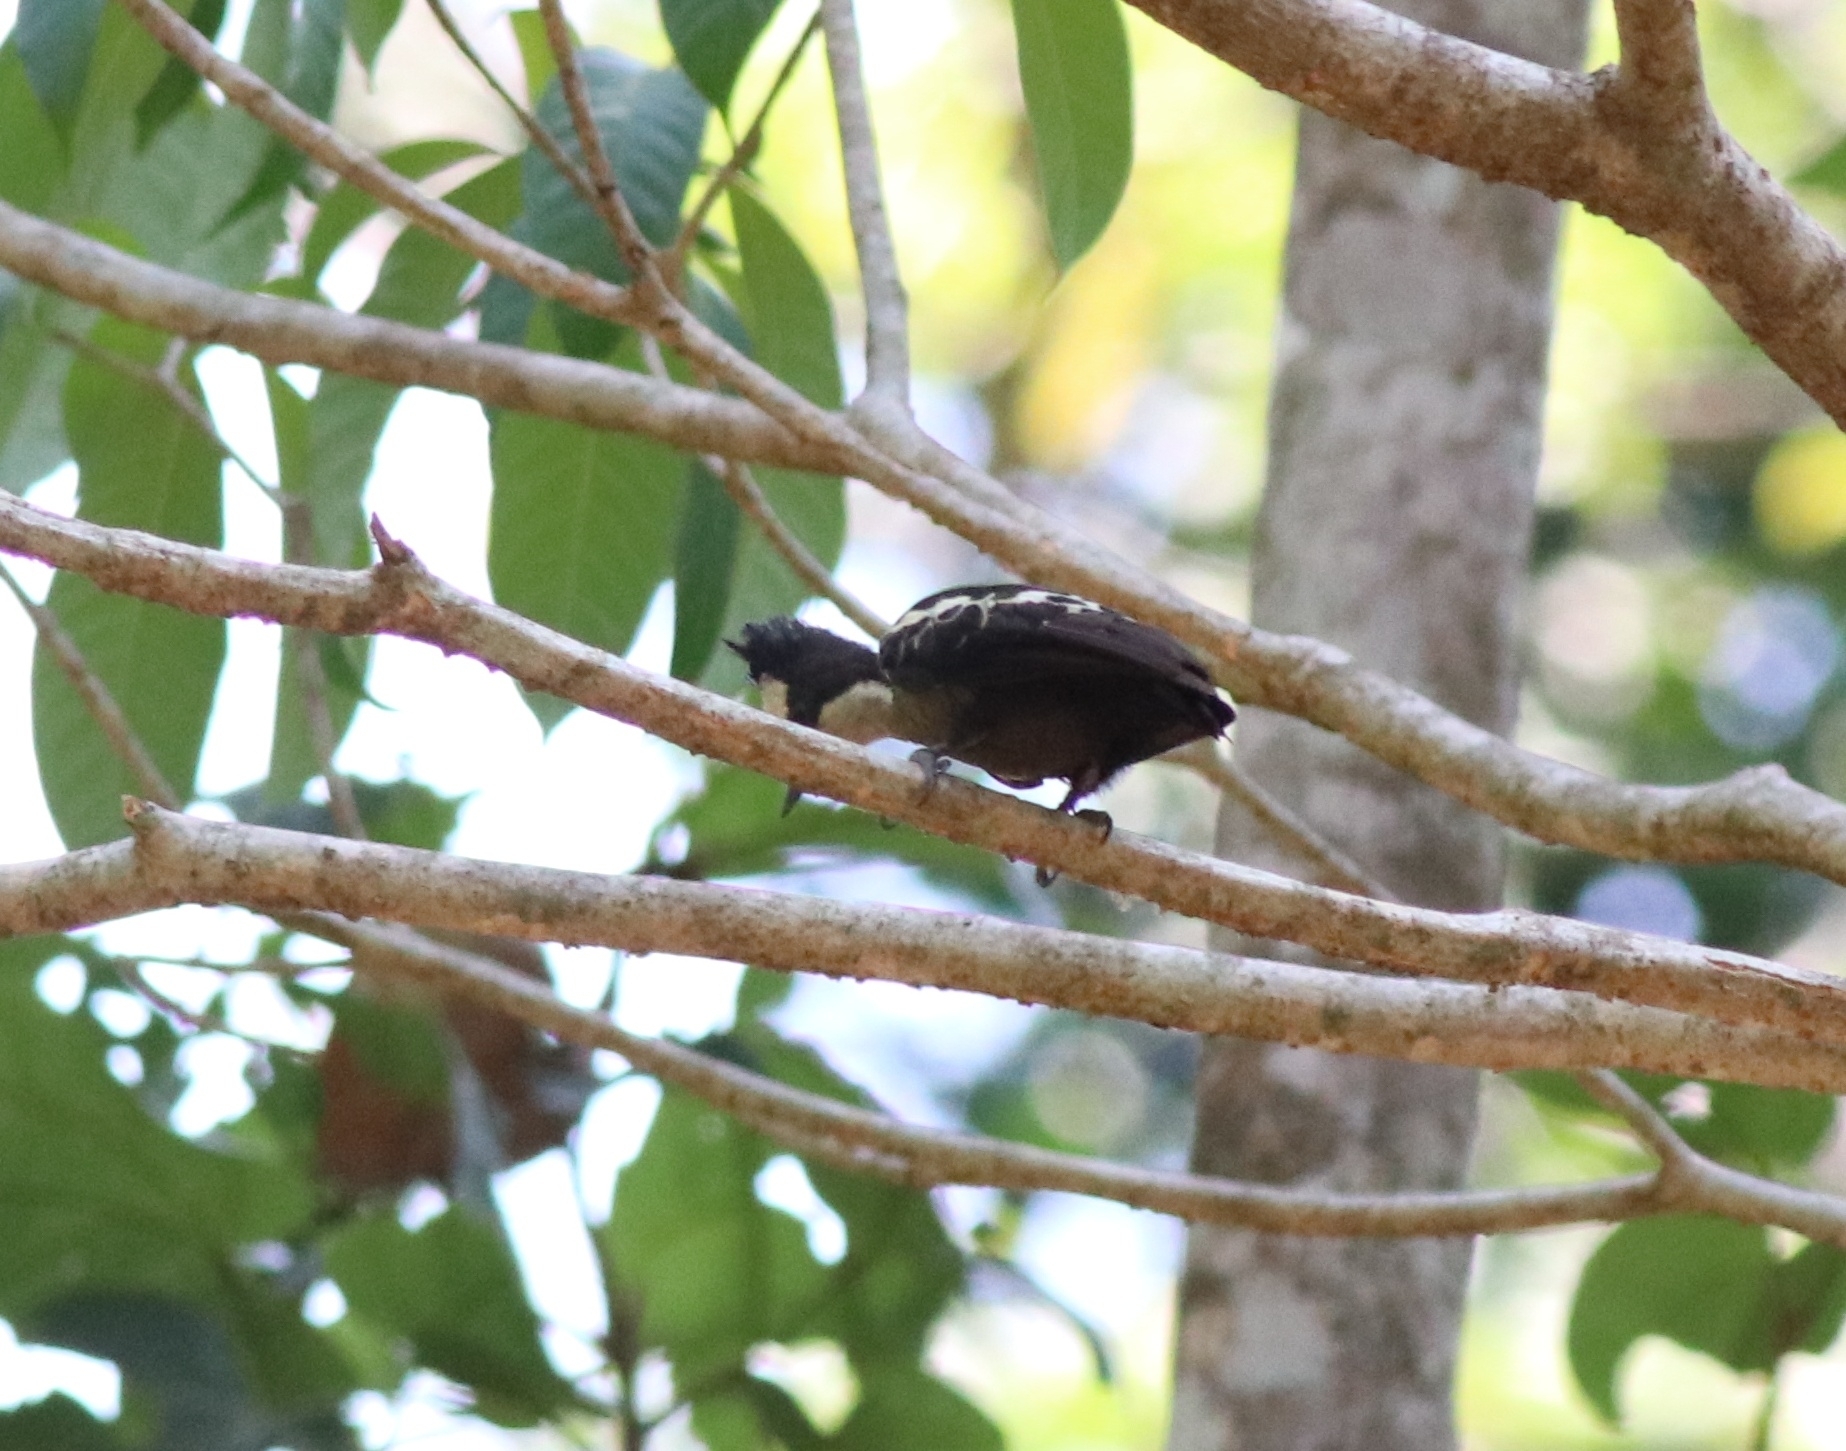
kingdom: Animalia
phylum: Chordata
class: Aves
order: Piciformes
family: Picidae
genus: Hemicircus
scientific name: Hemicircus canente
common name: Heart-spotted woodpecker
